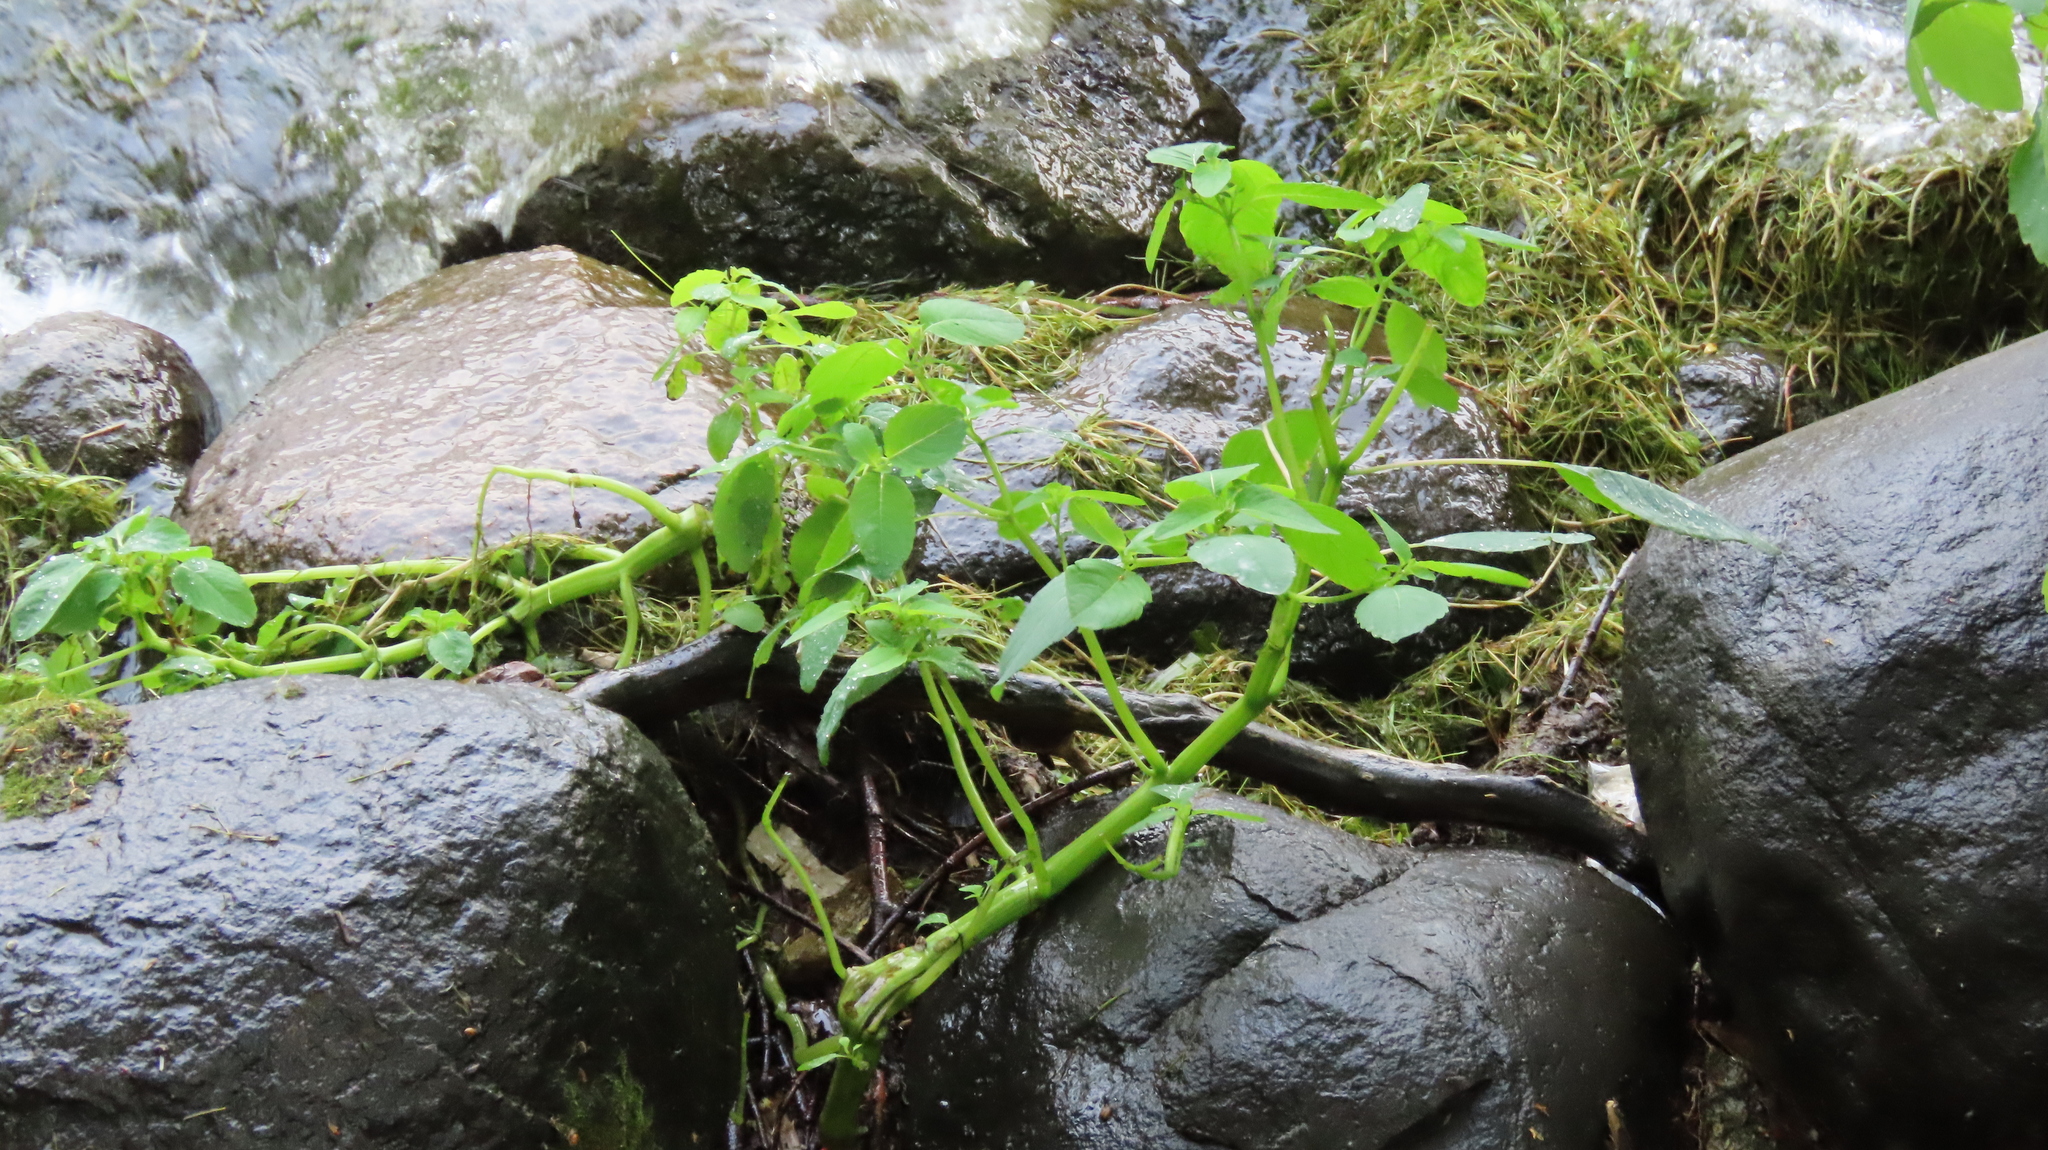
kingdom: Plantae
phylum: Tracheophyta
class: Magnoliopsida
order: Ericales
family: Balsaminaceae
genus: Impatiens
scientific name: Impatiens capensis
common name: Orange balsam
